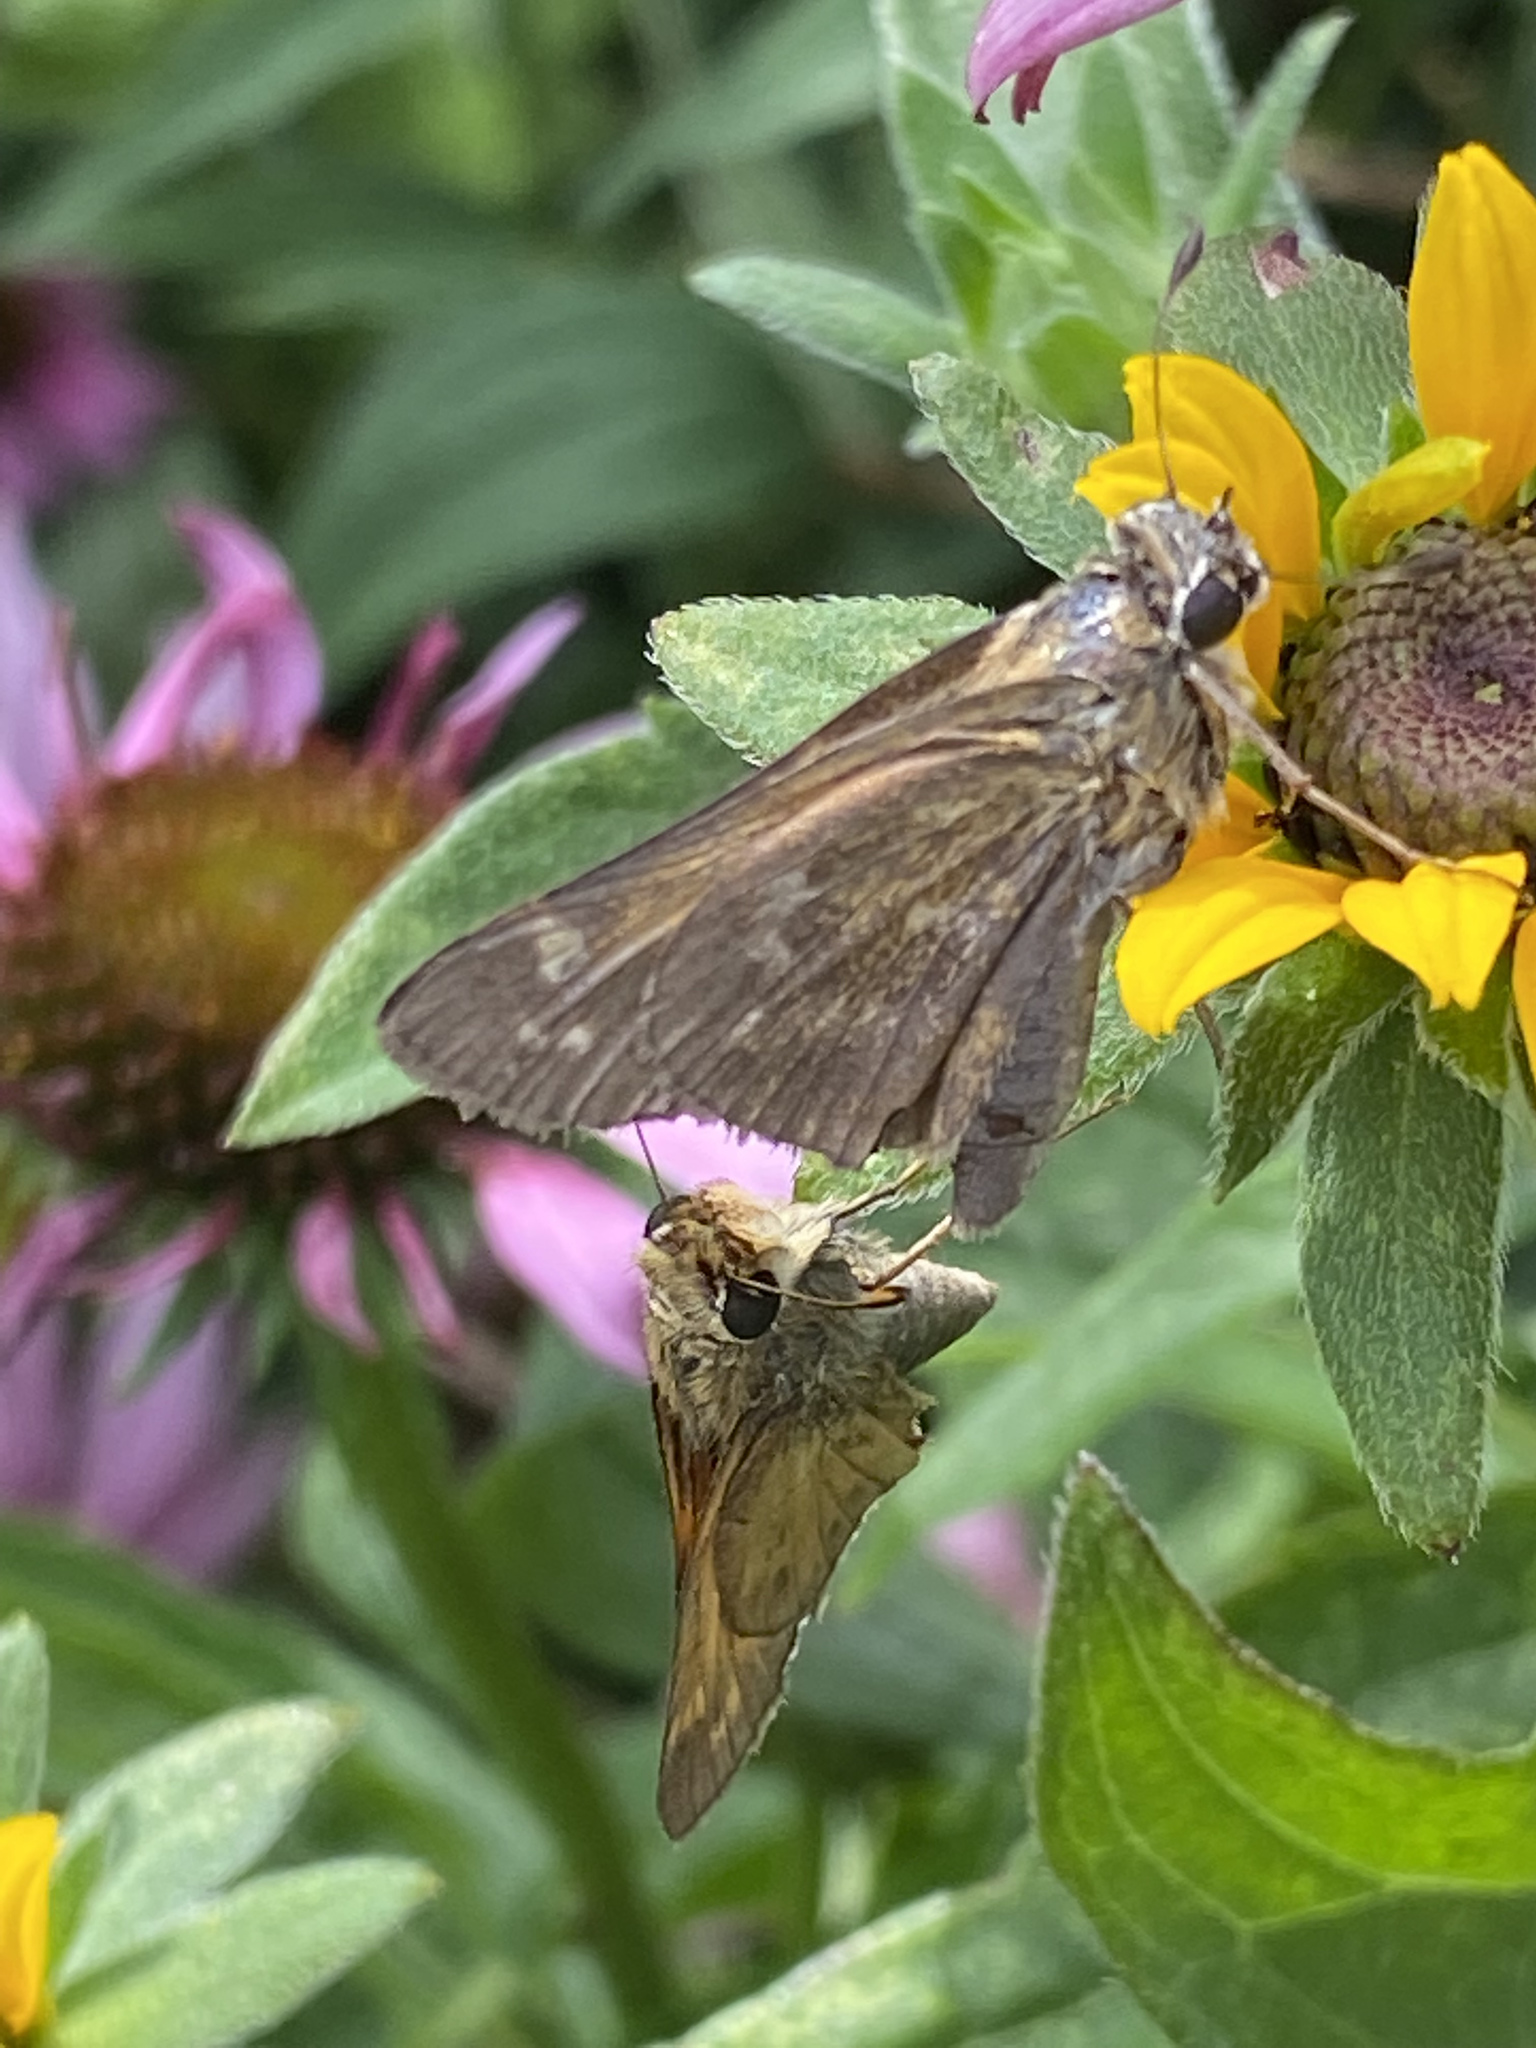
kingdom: Animalia
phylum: Arthropoda
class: Insecta
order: Lepidoptera
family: Hesperiidae
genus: Atalopedes
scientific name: Atalopedes
